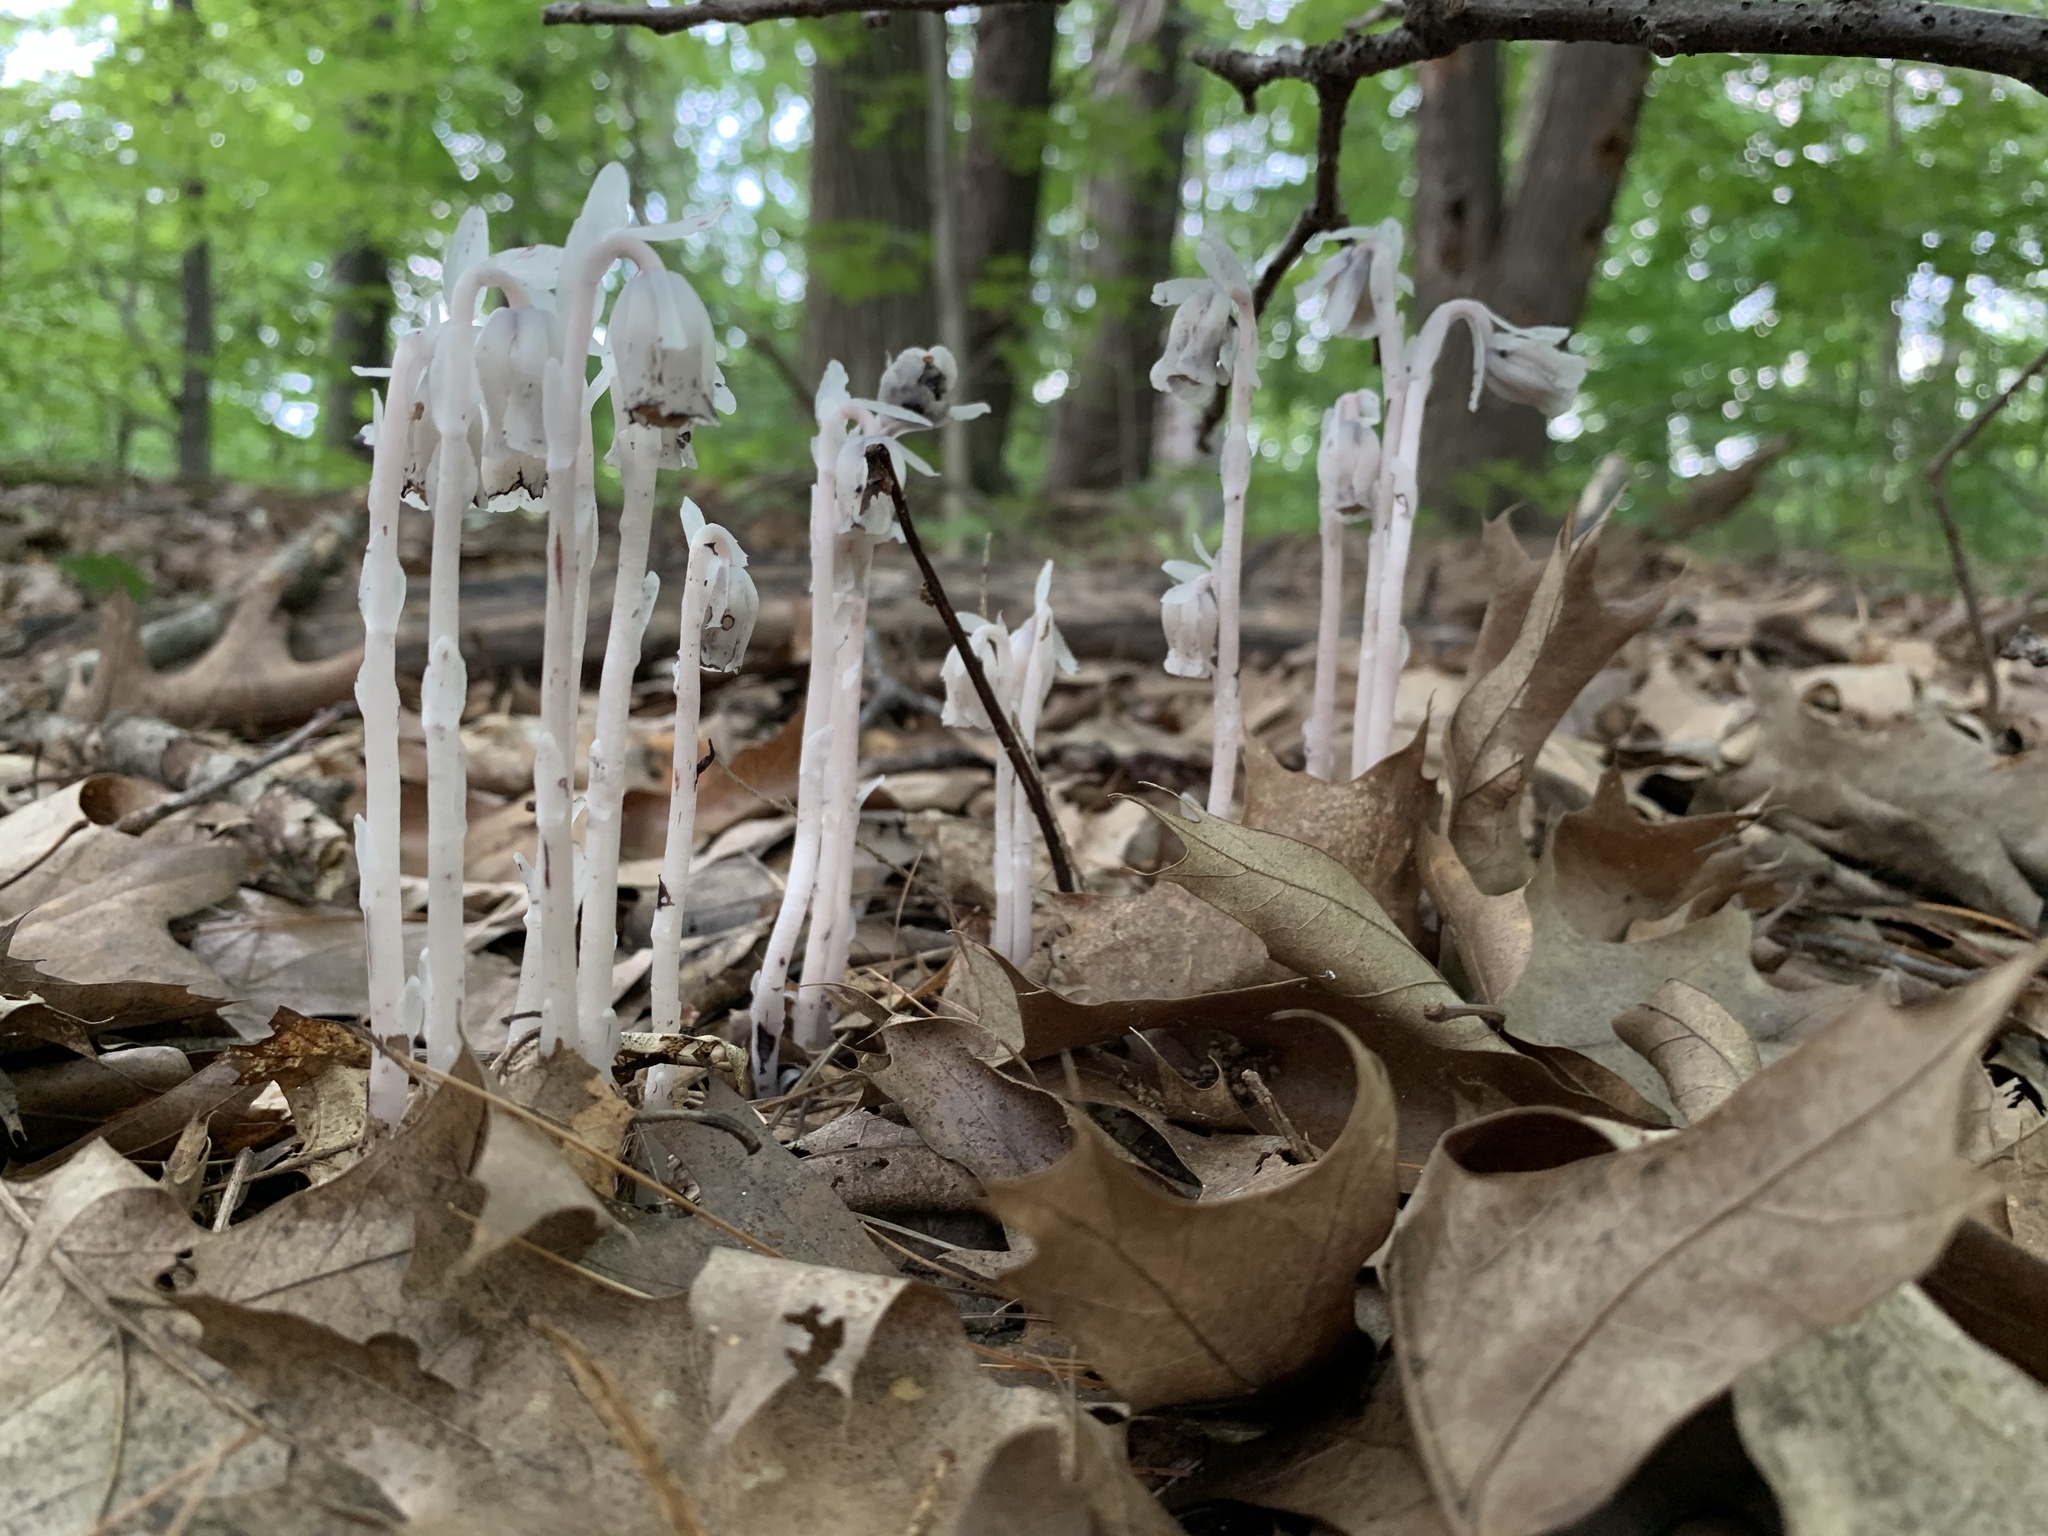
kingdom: Plantae
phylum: Tracheophyta
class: Magnoliopsida
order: Ericales
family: Ericaceae
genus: Monotropa
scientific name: Monotropa uniflora
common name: Convulsion root
